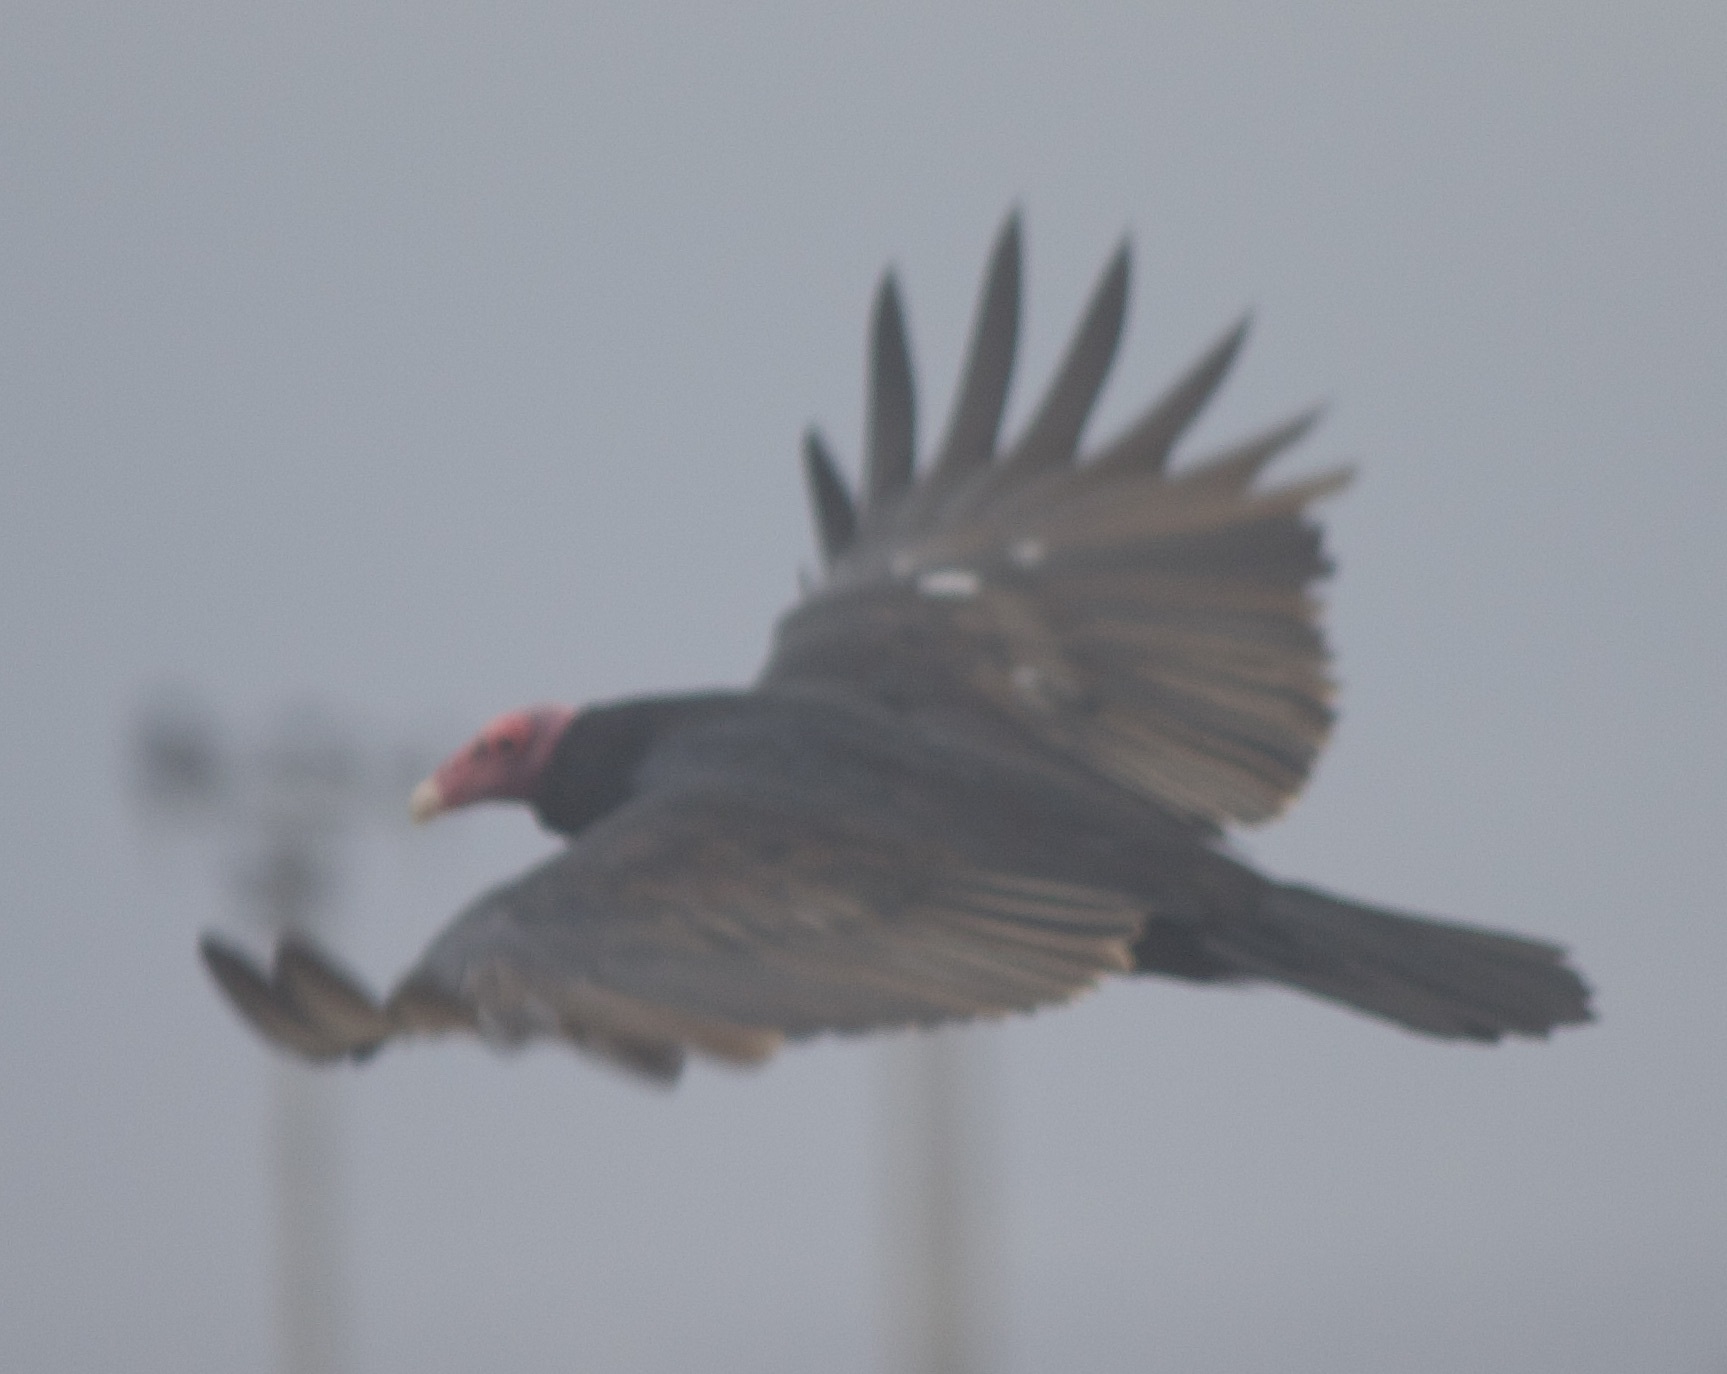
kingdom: Animalia
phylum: Chordata
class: Aves
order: Accipitriformes
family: Cathartidae
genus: Cathartes
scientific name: Cathartes aura
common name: Turkey vulture
